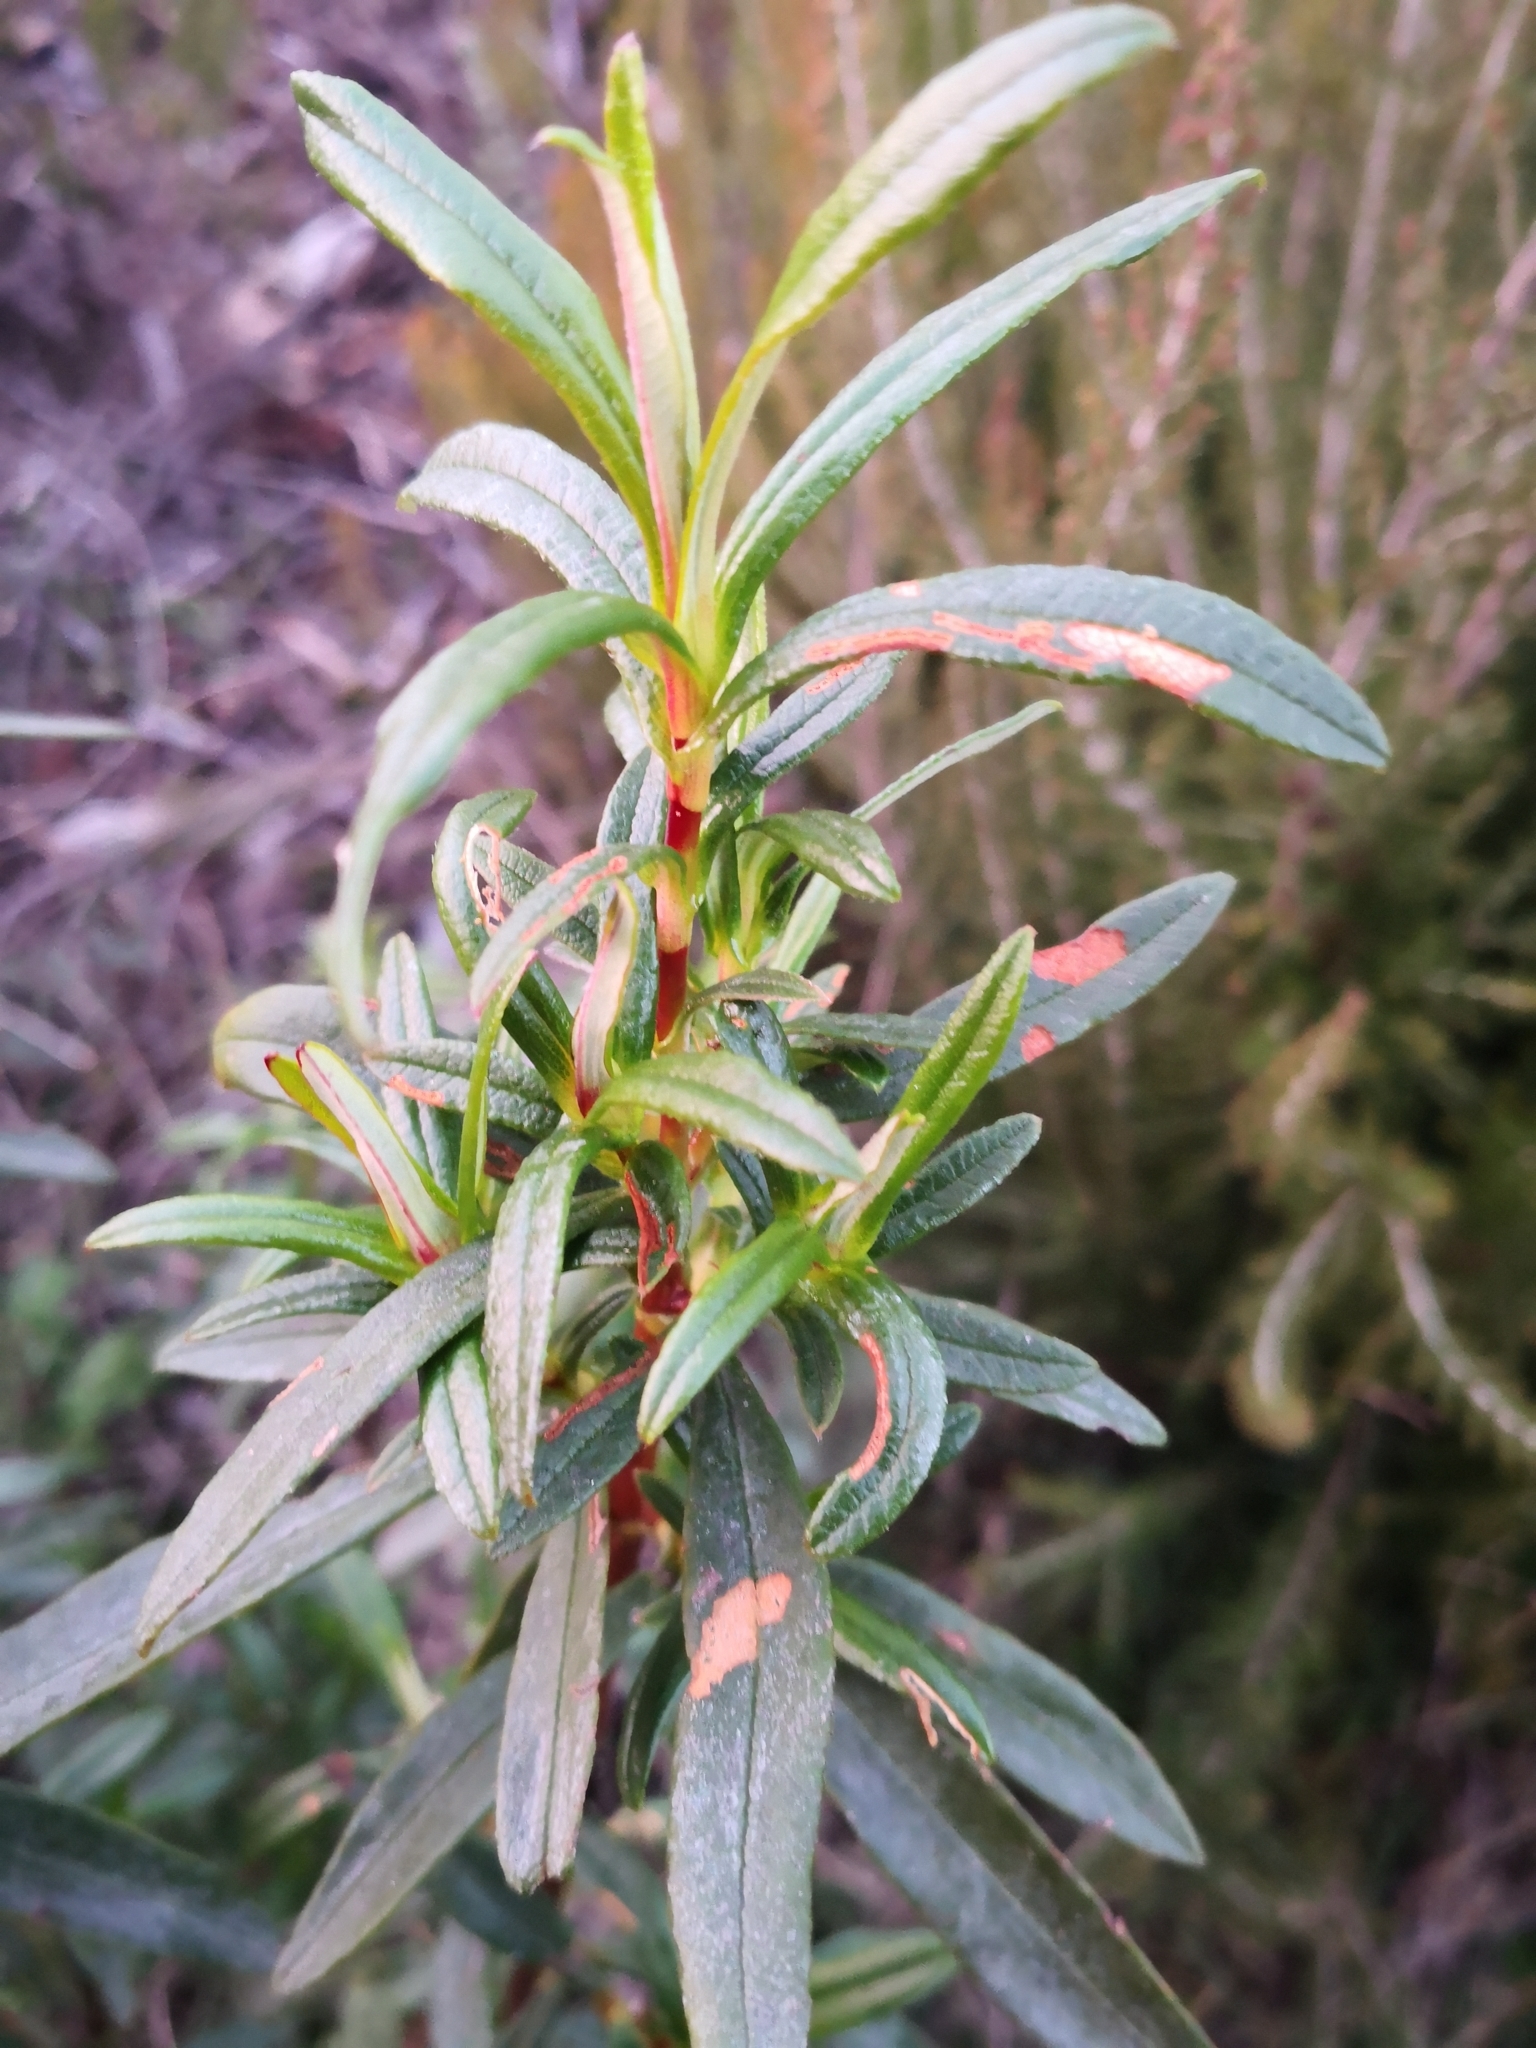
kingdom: Plantae
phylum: Tracheophyta
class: Magnoliopsida
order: Malvales
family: Cistaceae
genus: Cistus
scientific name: Cistus ladanifer
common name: Common gum cistus
